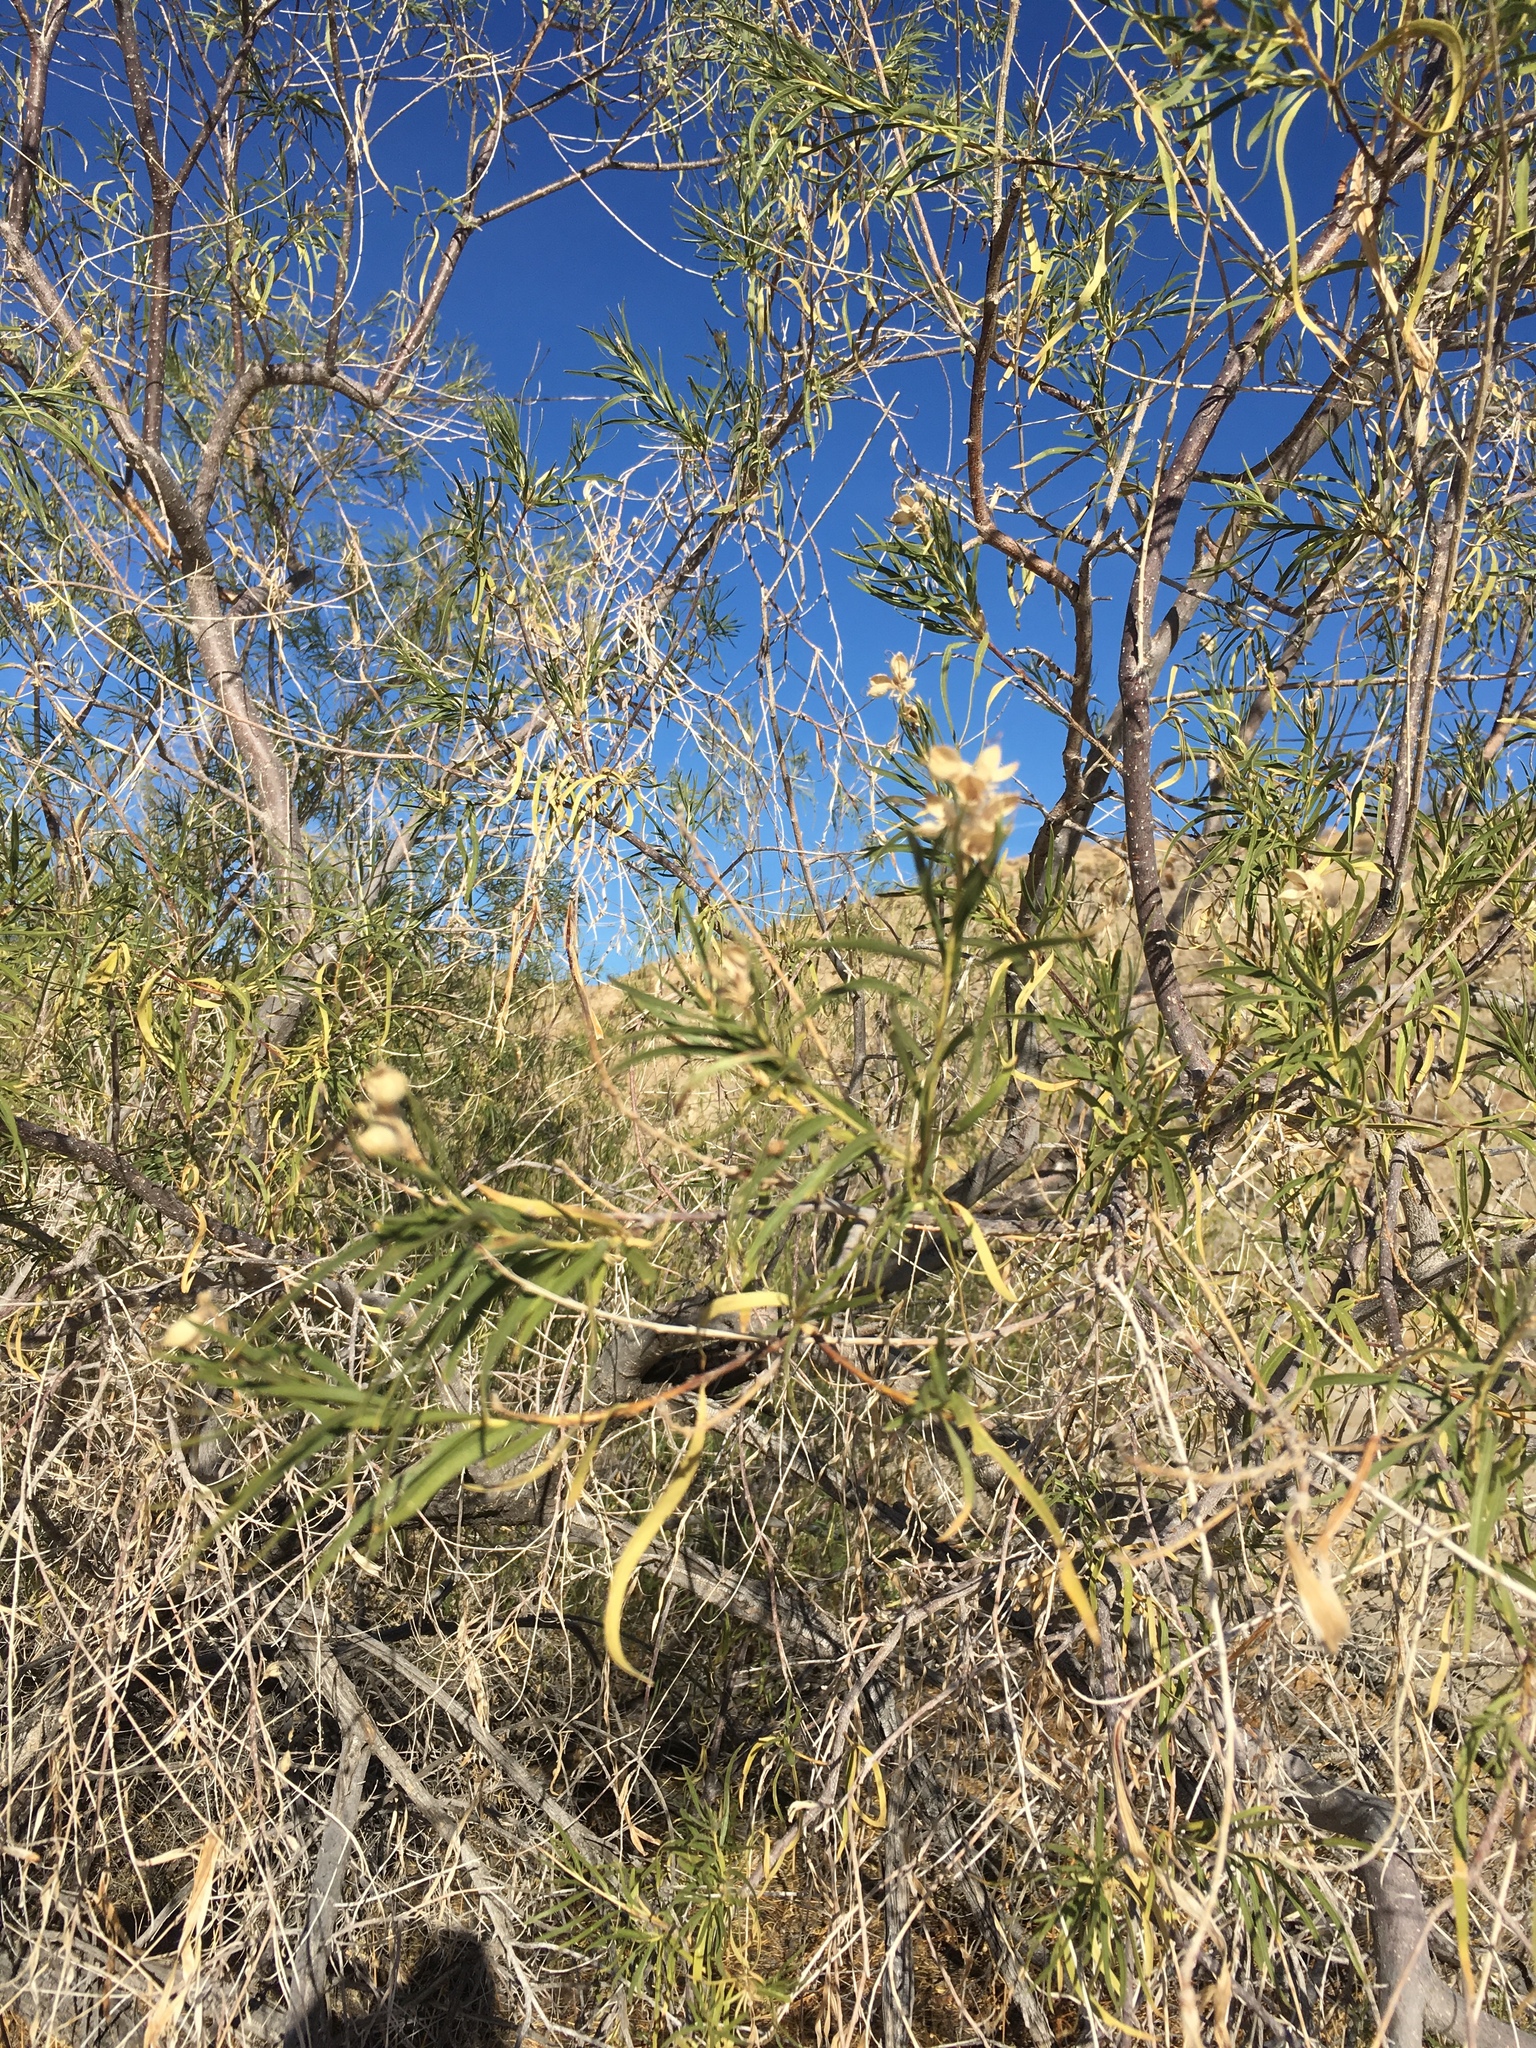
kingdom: Plantae
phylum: Tracheophyta
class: Magnoliopsida
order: Lamiales
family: Bignoniaceae
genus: Chilopsis
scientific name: Chilopsis linearis
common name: Desert-willow
